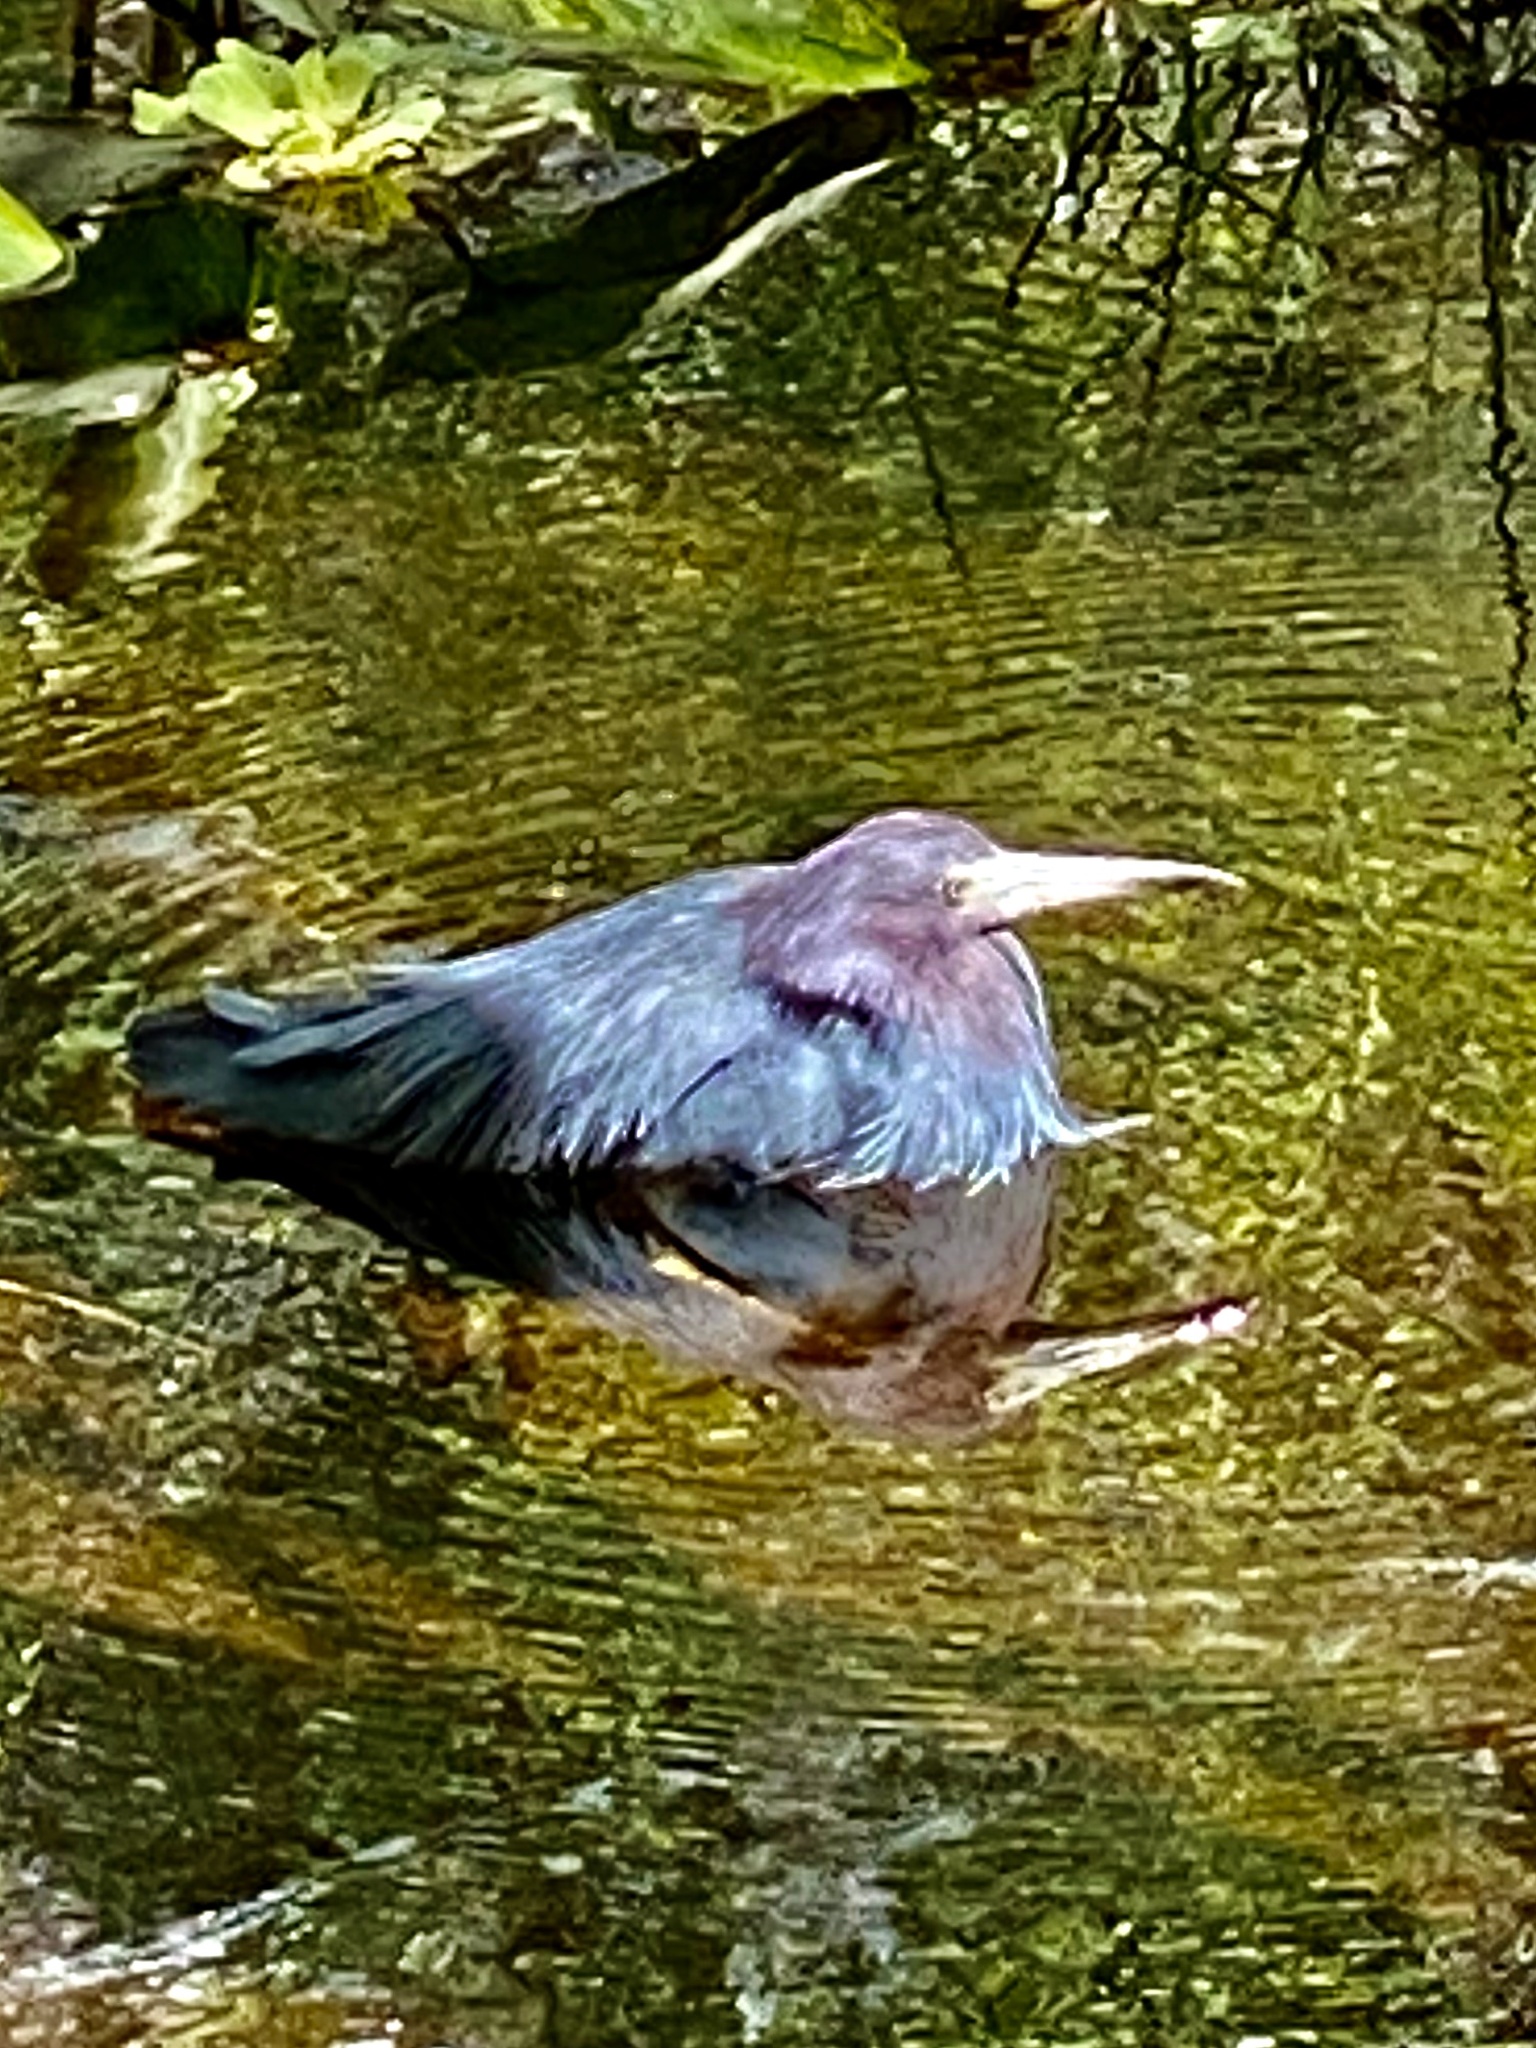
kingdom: Animalia
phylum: Chordata
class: Aves
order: Pelecaniformes
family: Ardeidae
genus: Egretta
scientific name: Egretta caerulea
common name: Little blue heron
